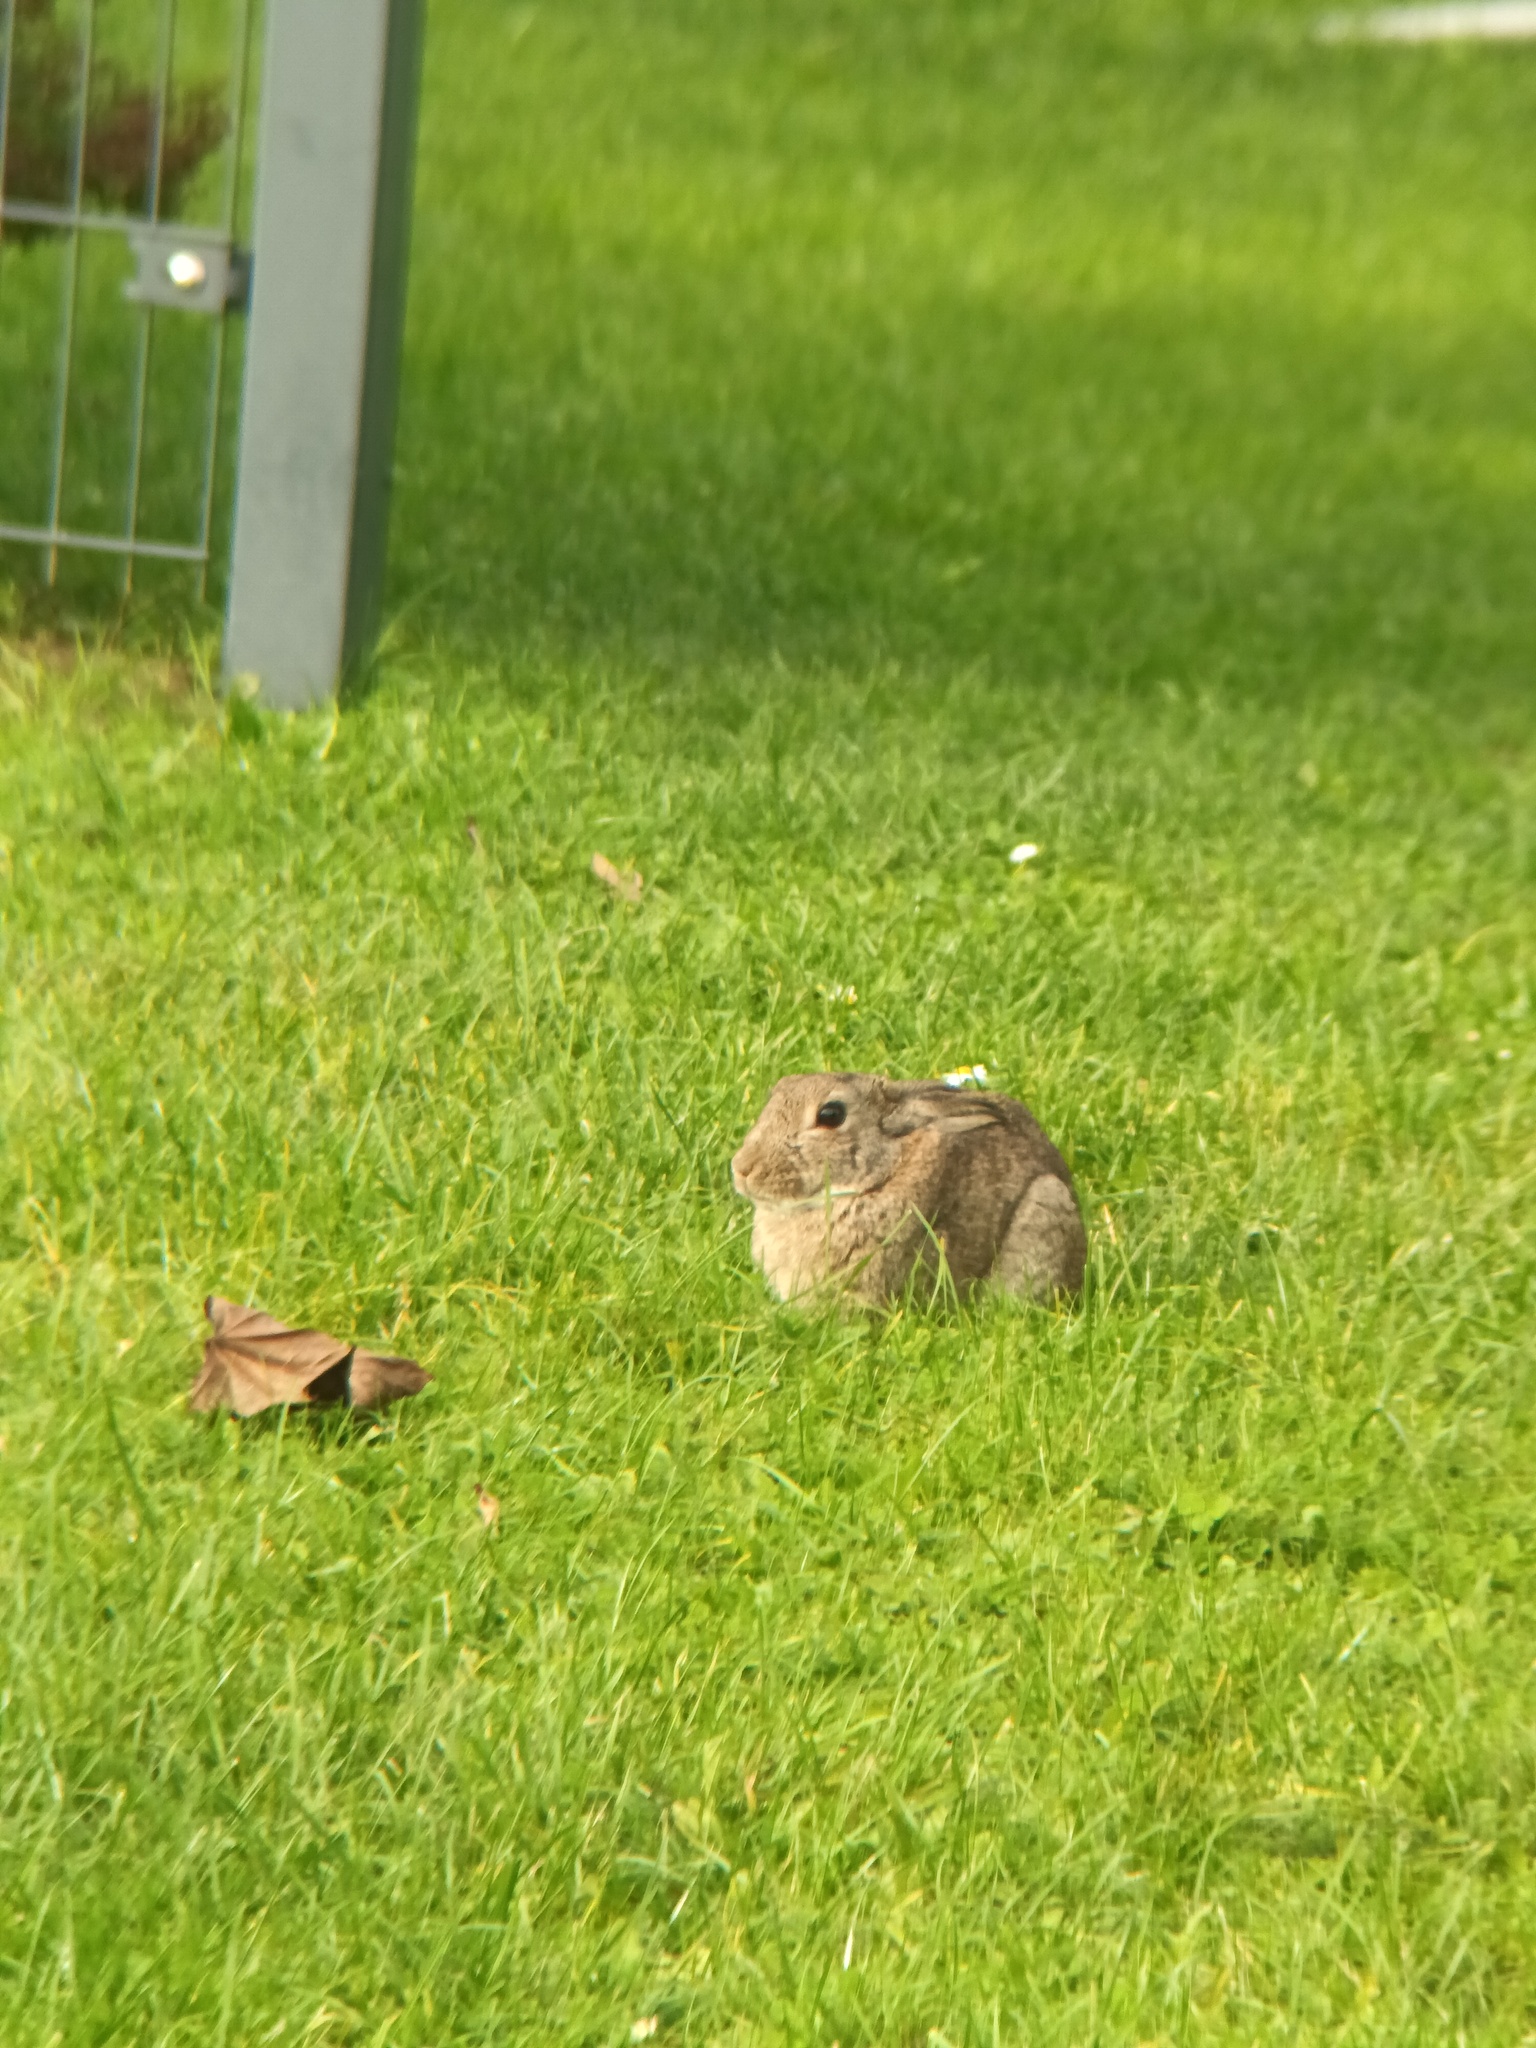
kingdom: Animalia
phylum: Chordata
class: Mammalia
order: Lagomorpha
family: Leporidae
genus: Oryctolagus
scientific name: Oryctolagus cuniculus
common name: European rabbit
